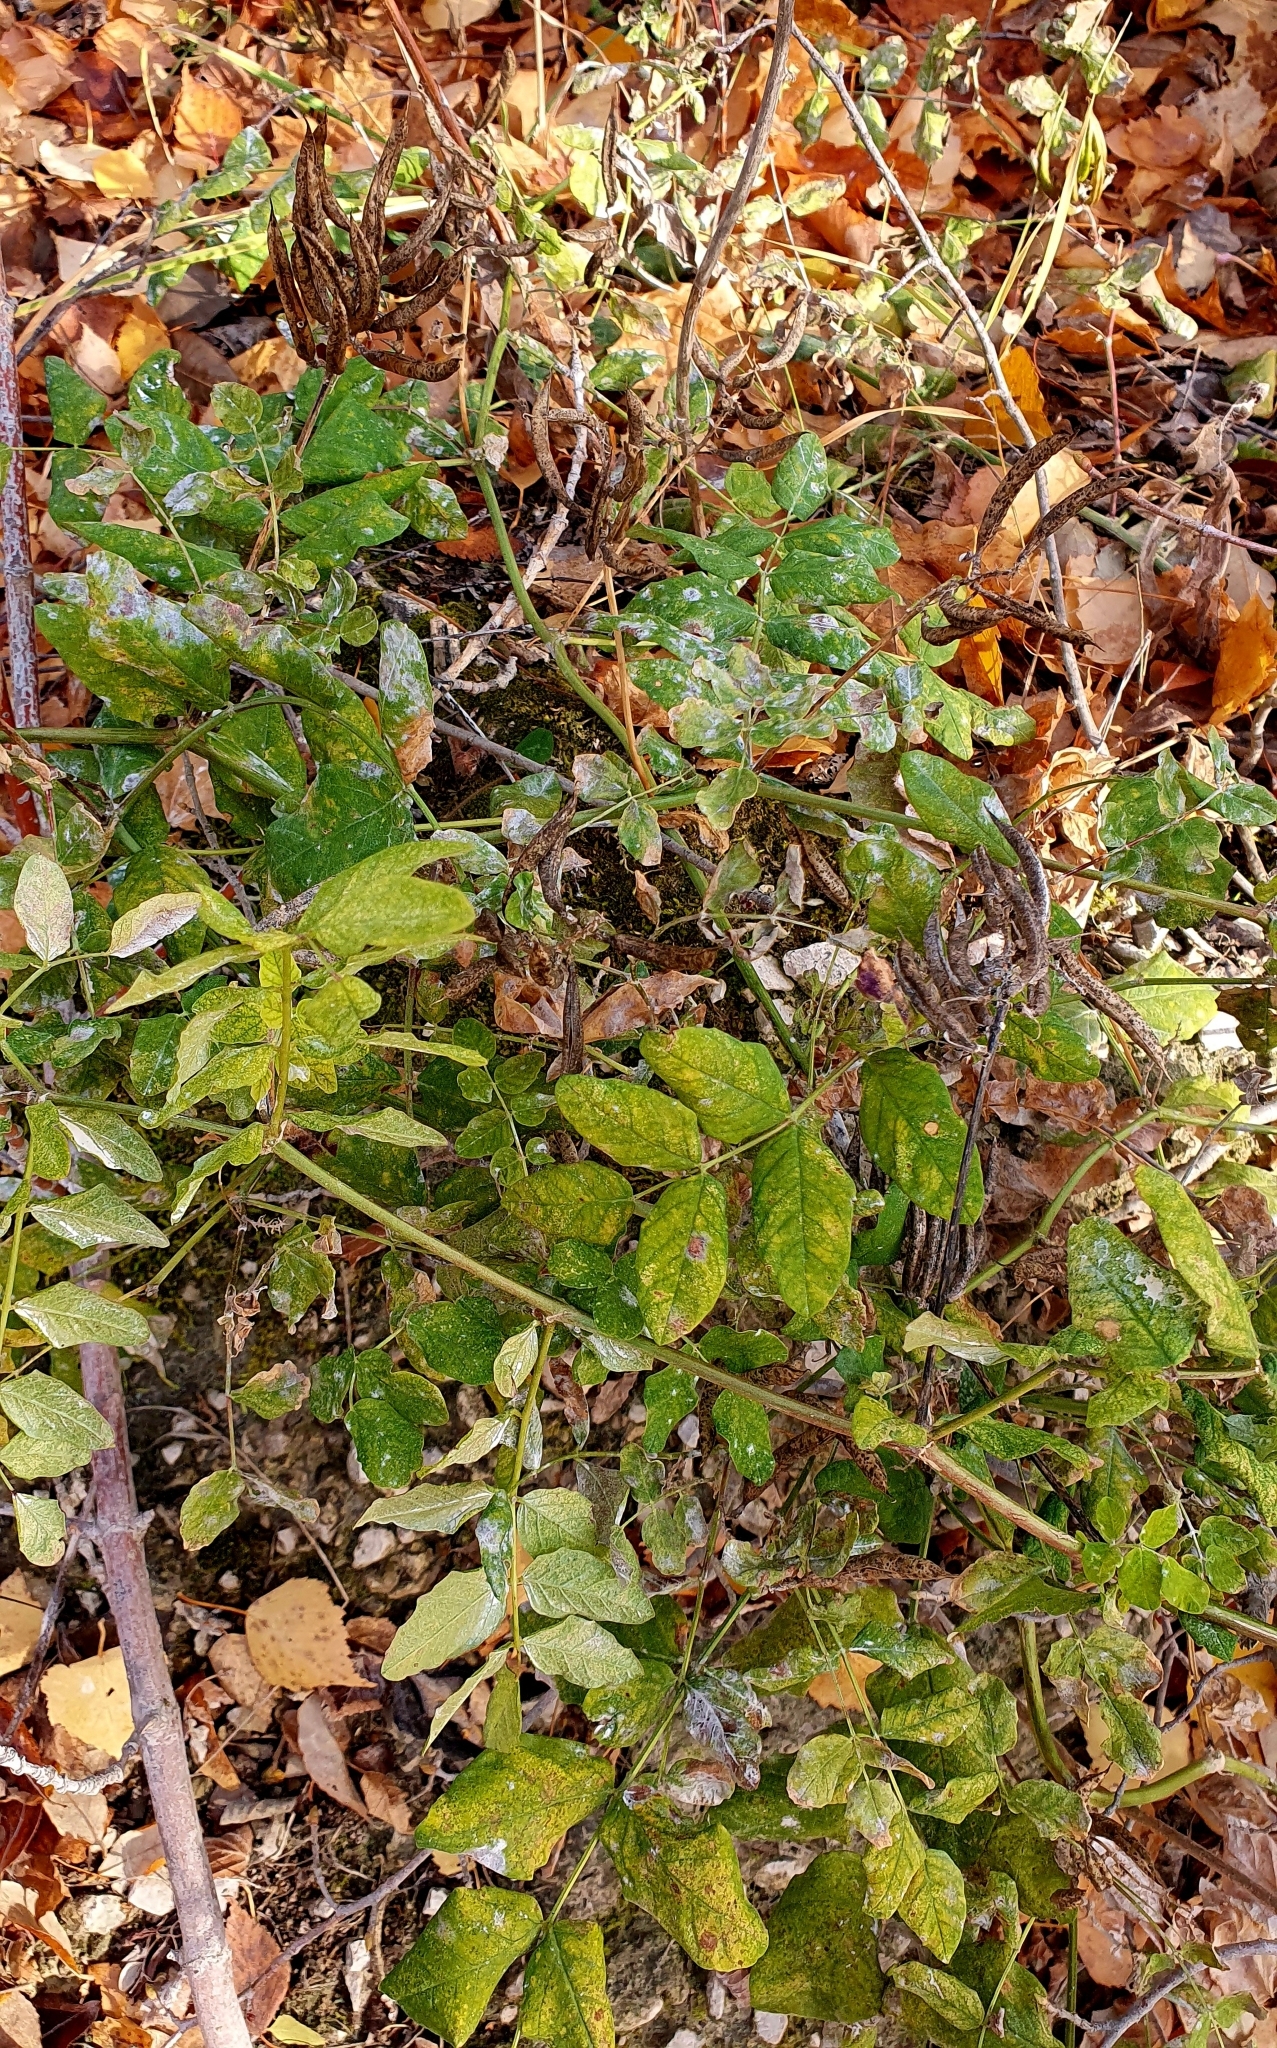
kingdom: Plantae
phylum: Tracheophyta
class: Magnoliopsida
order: Fabales
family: Fabaceae
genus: Astragalus
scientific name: Astragalus glycyphyllos
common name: Wild liquorice
